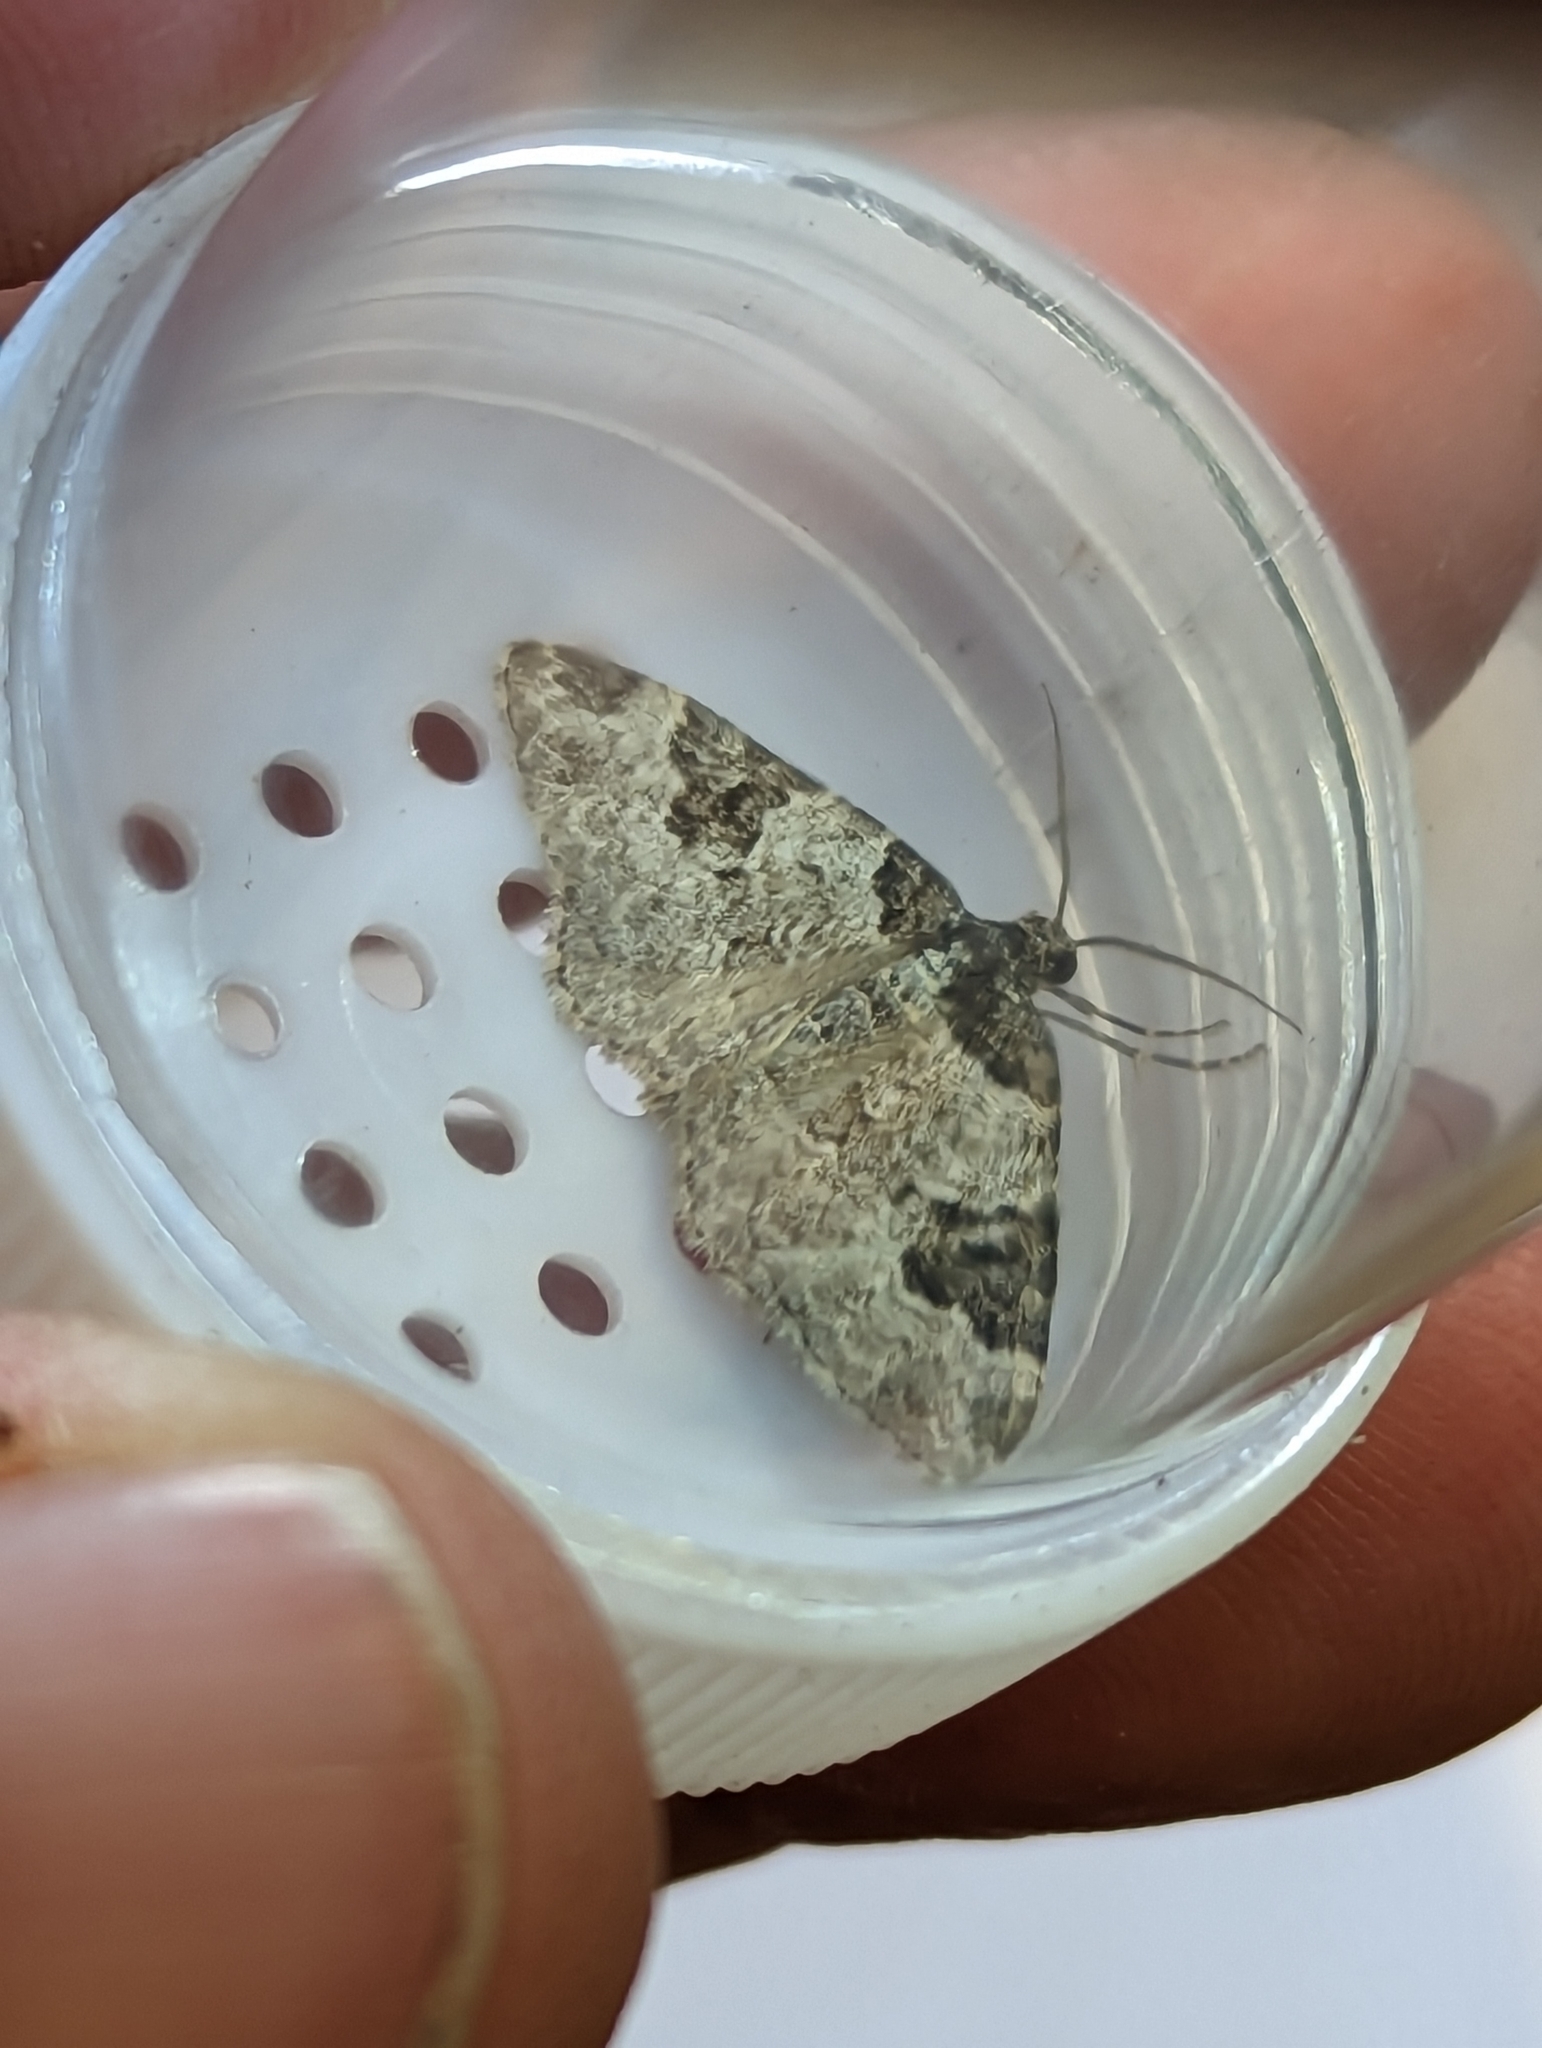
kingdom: Animalia
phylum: Arthropoda
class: Insecta
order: Lepidoptera
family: Geometridae
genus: Xanthorhoe
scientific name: Xanthorhoe fluctuata
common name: Garden carpet
